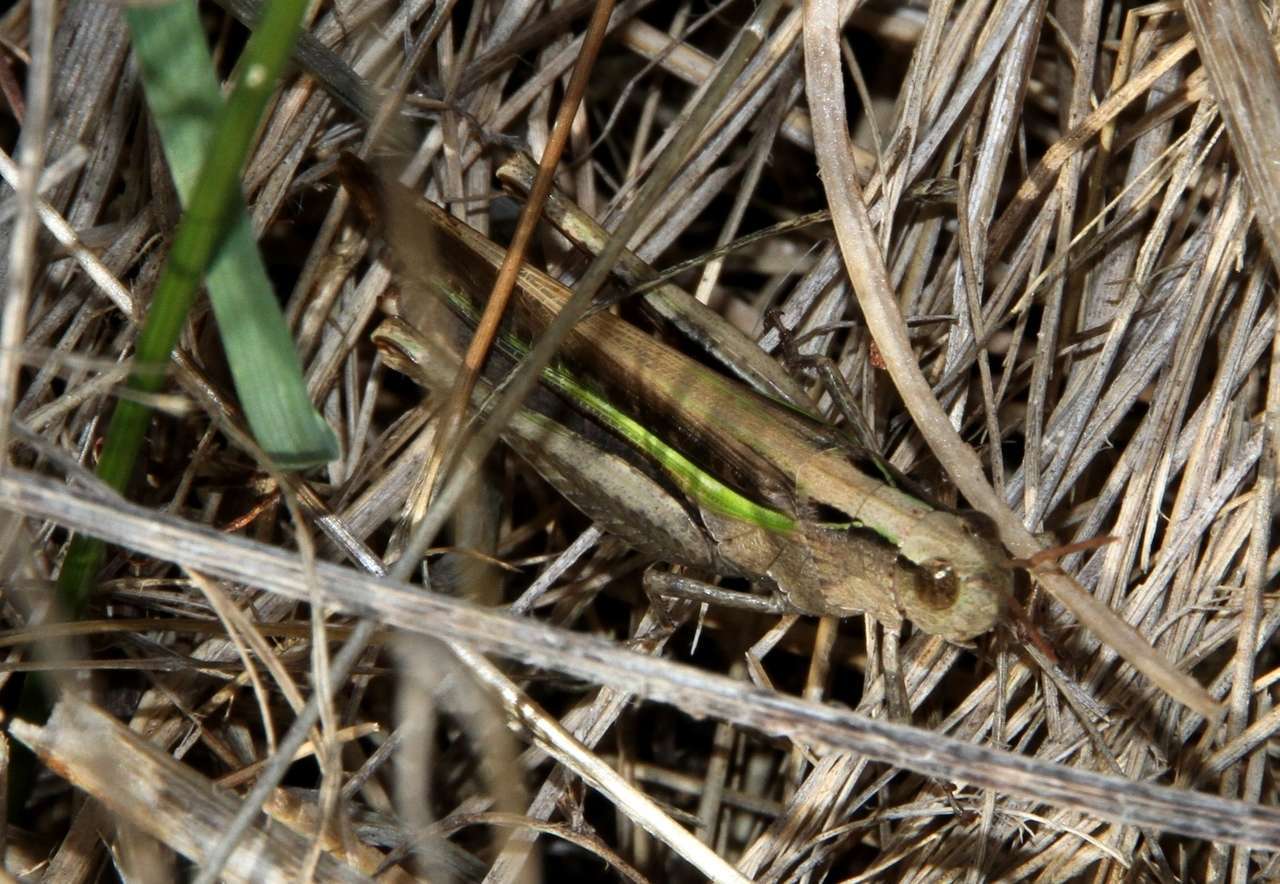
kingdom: Animalia
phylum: Arthropoda
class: Insecta
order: Orthoptera
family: Acrididae
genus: Schizobothrus
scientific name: Schizobothrus flavovittatus
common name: Disappearing grasshopper
